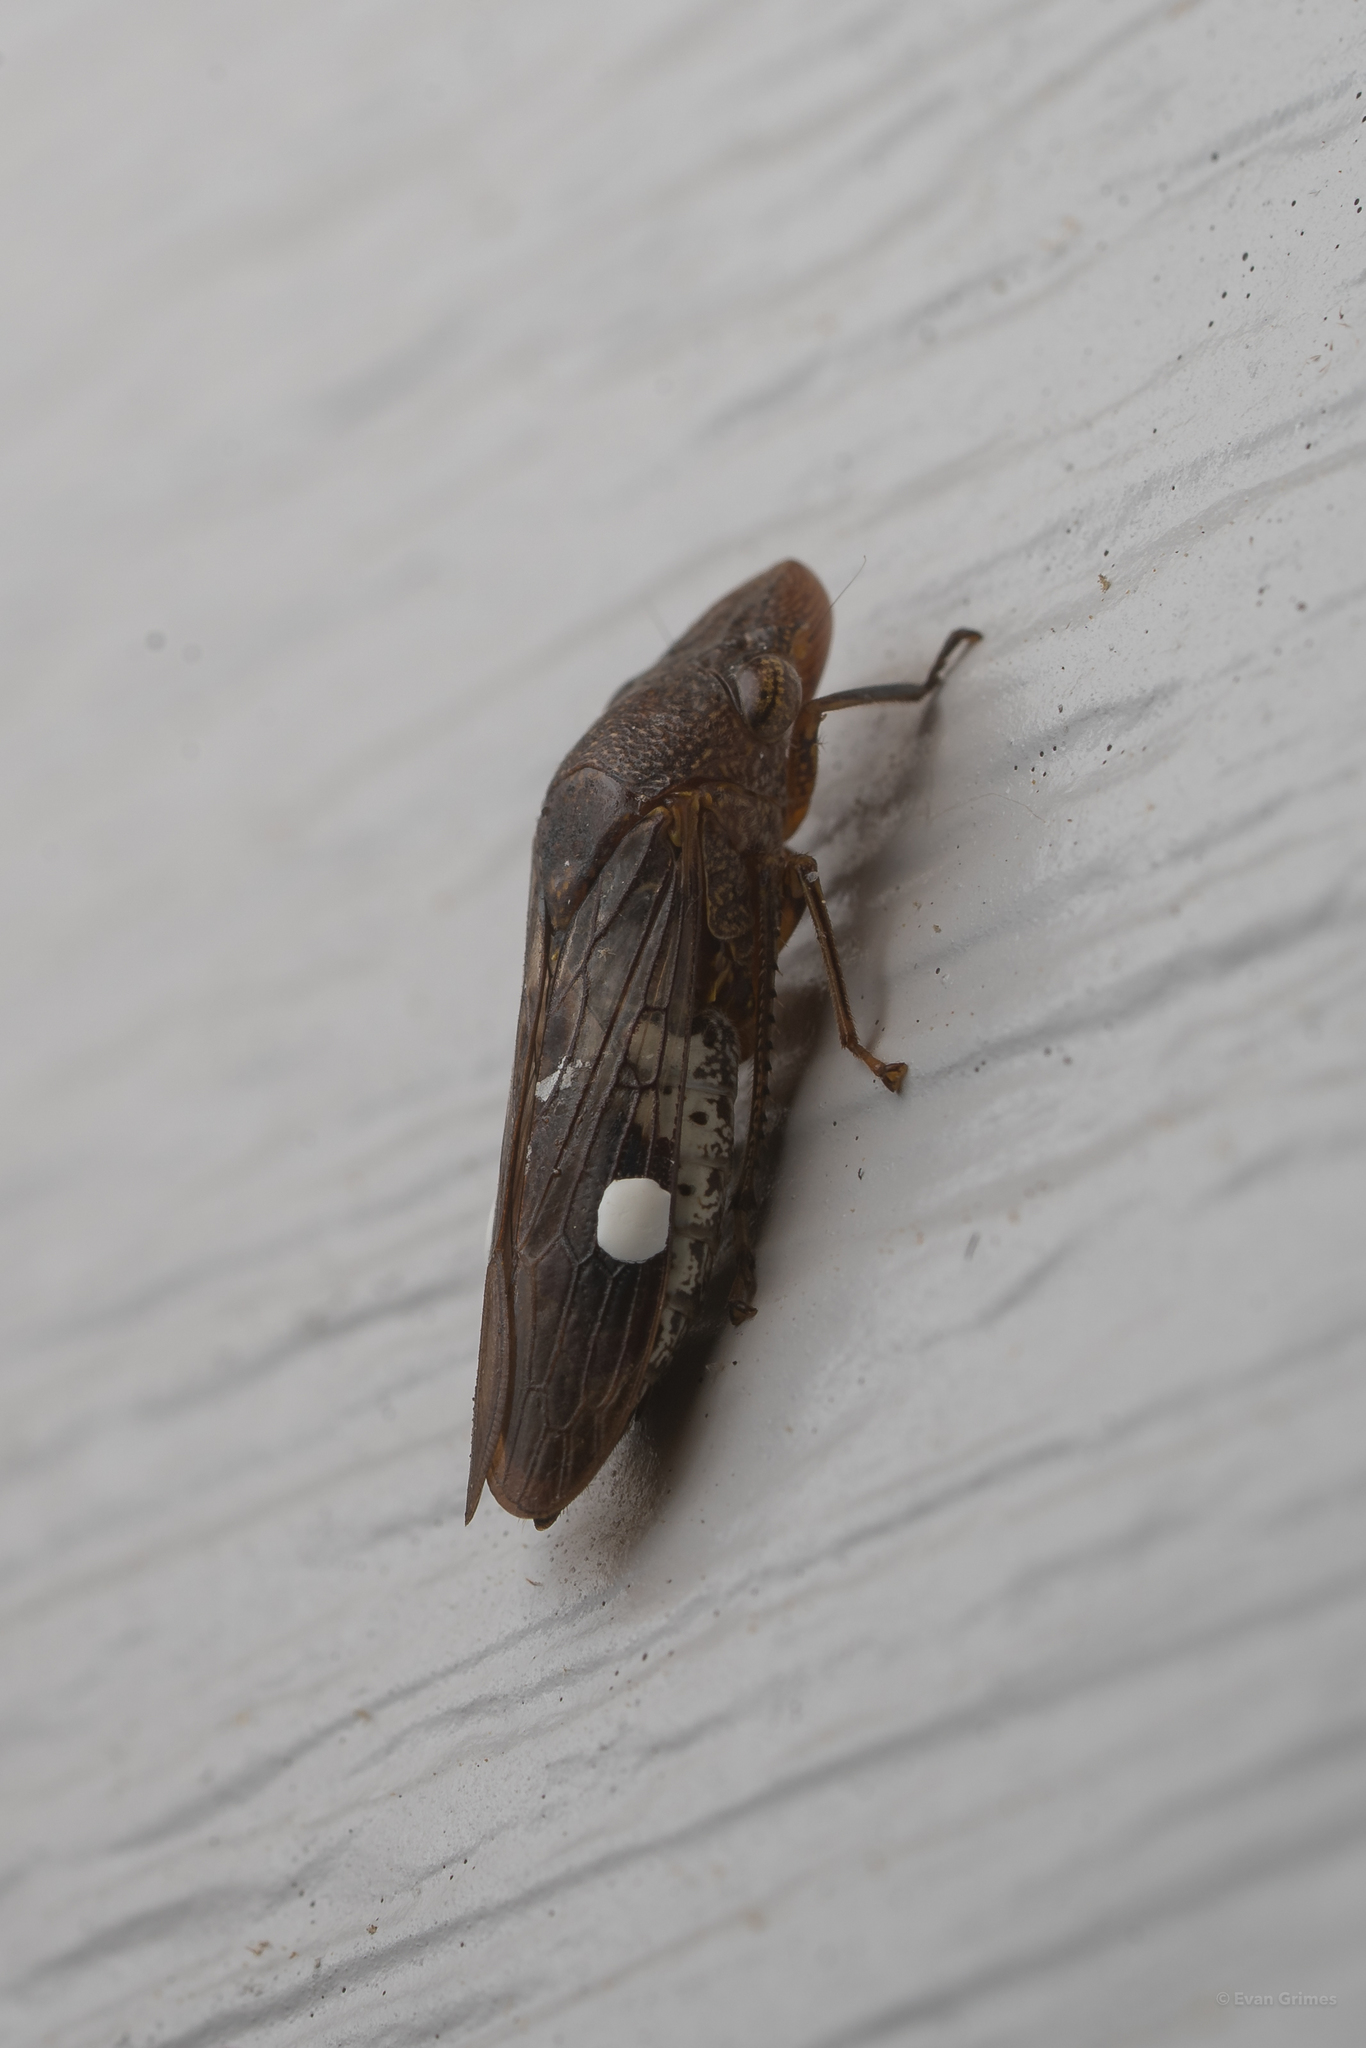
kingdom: Animalia
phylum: Arthropoda
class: Insecta
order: Hemiptera
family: Cicadellidae
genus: Homalodisca
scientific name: Homalodisca vitripennis
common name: Glassy-winged sharpshooter
